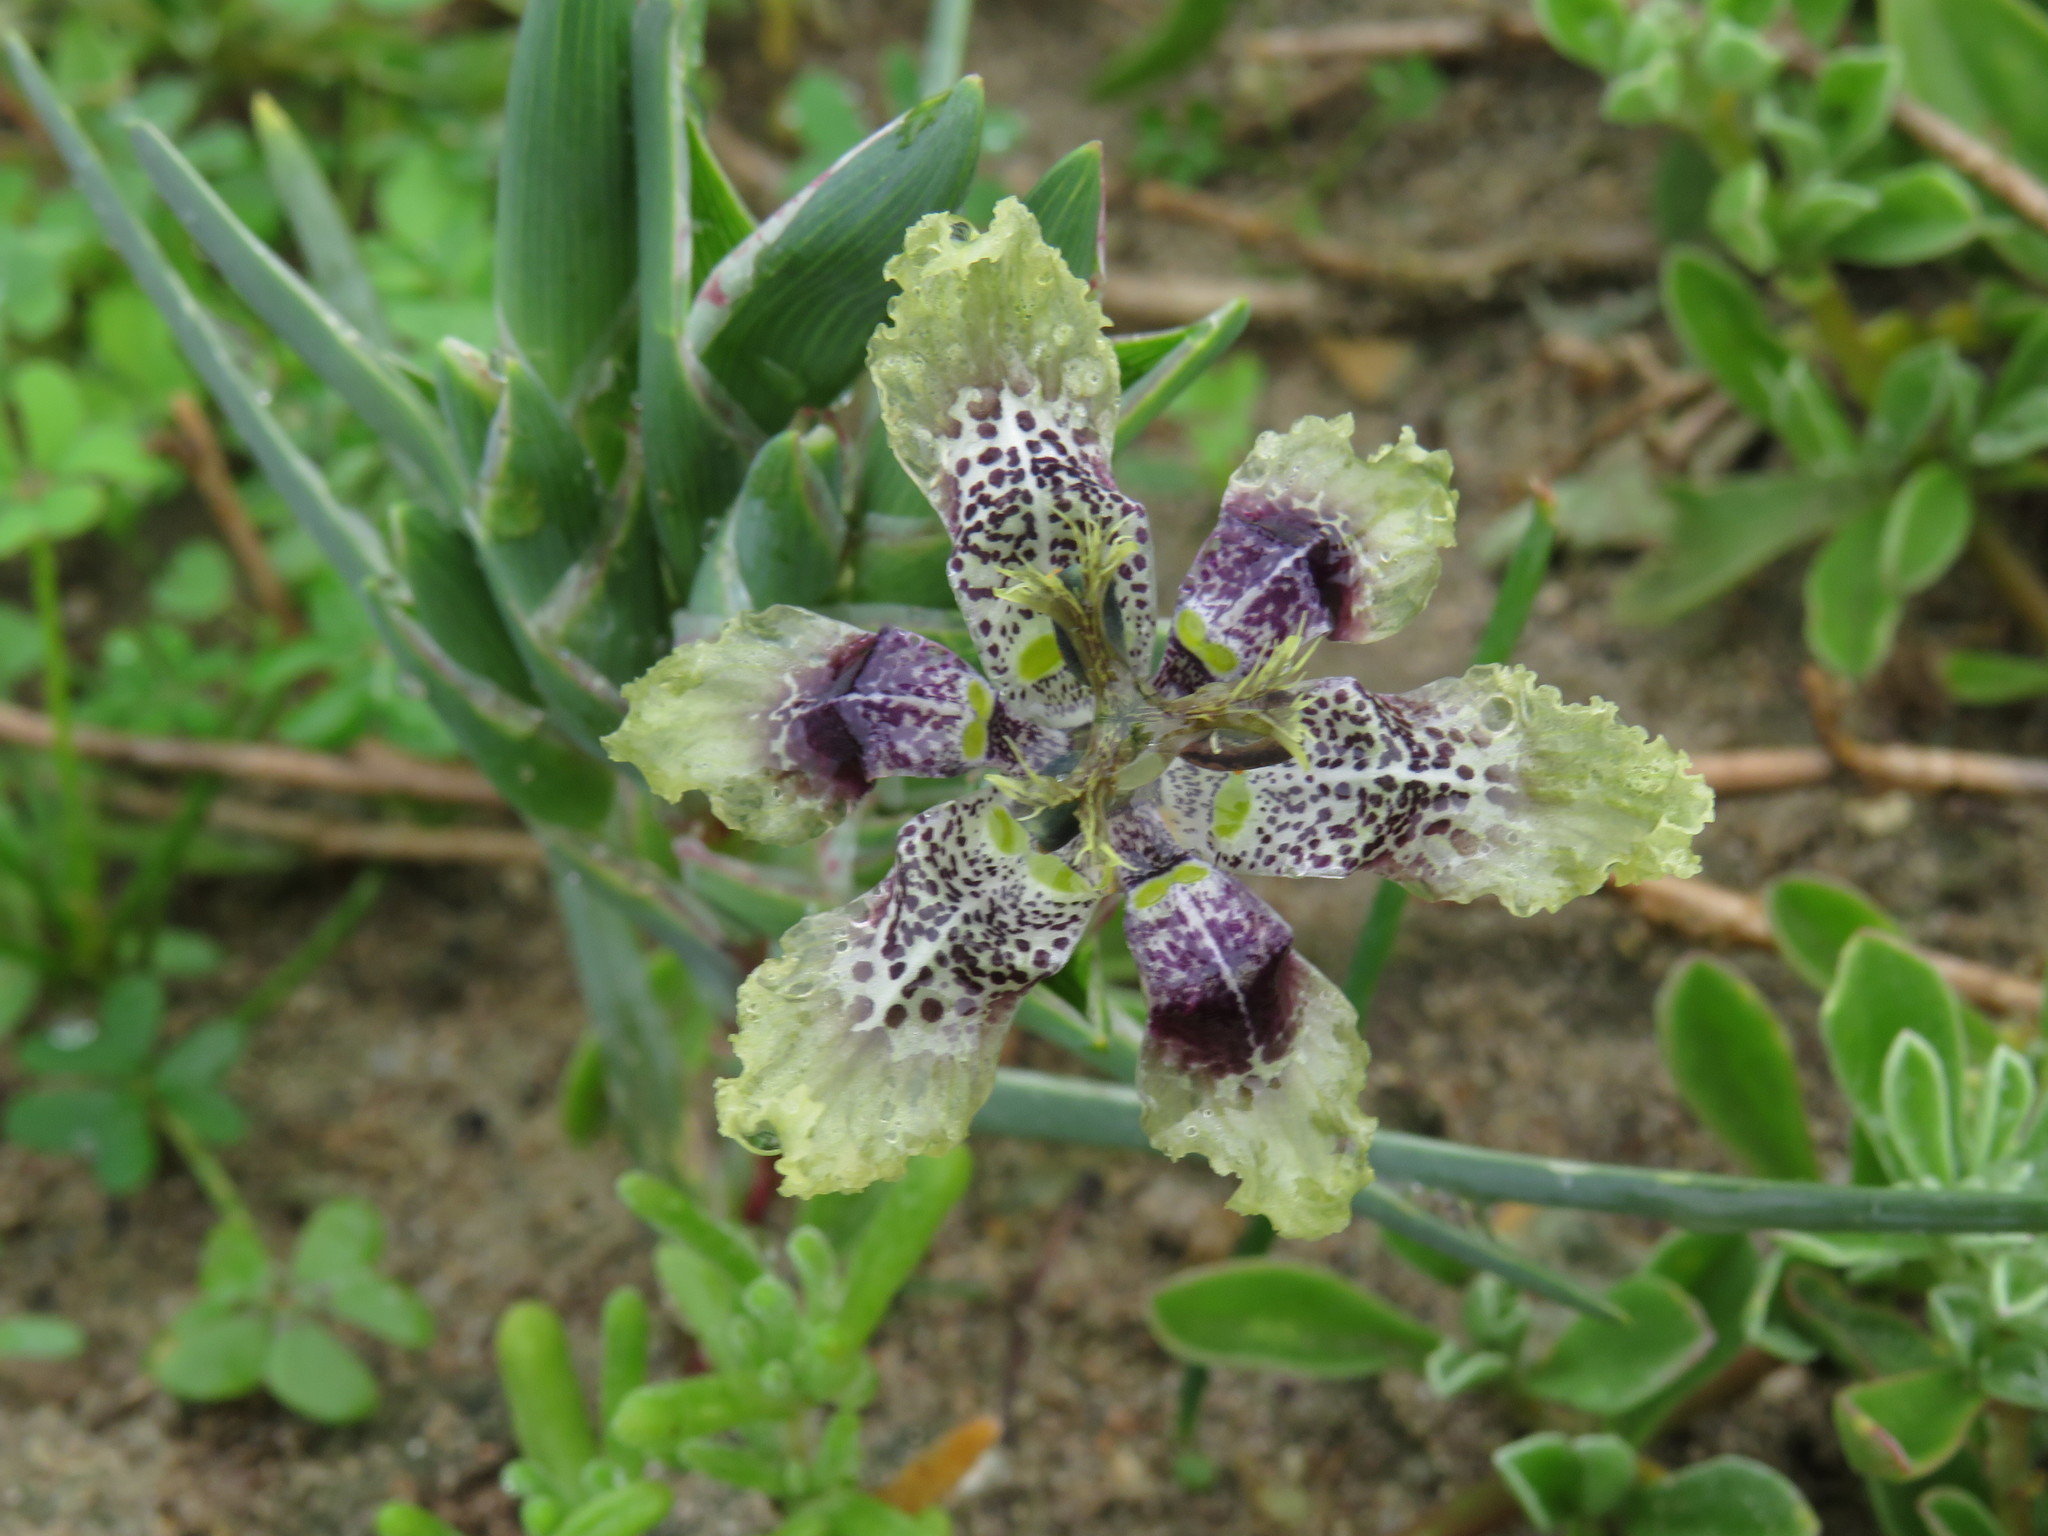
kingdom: Plantae
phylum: Tracheophyta
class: Liliopsida
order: Asparagales
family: Iridaceae
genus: Ferraria
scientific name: Ferraria densepunctulata
